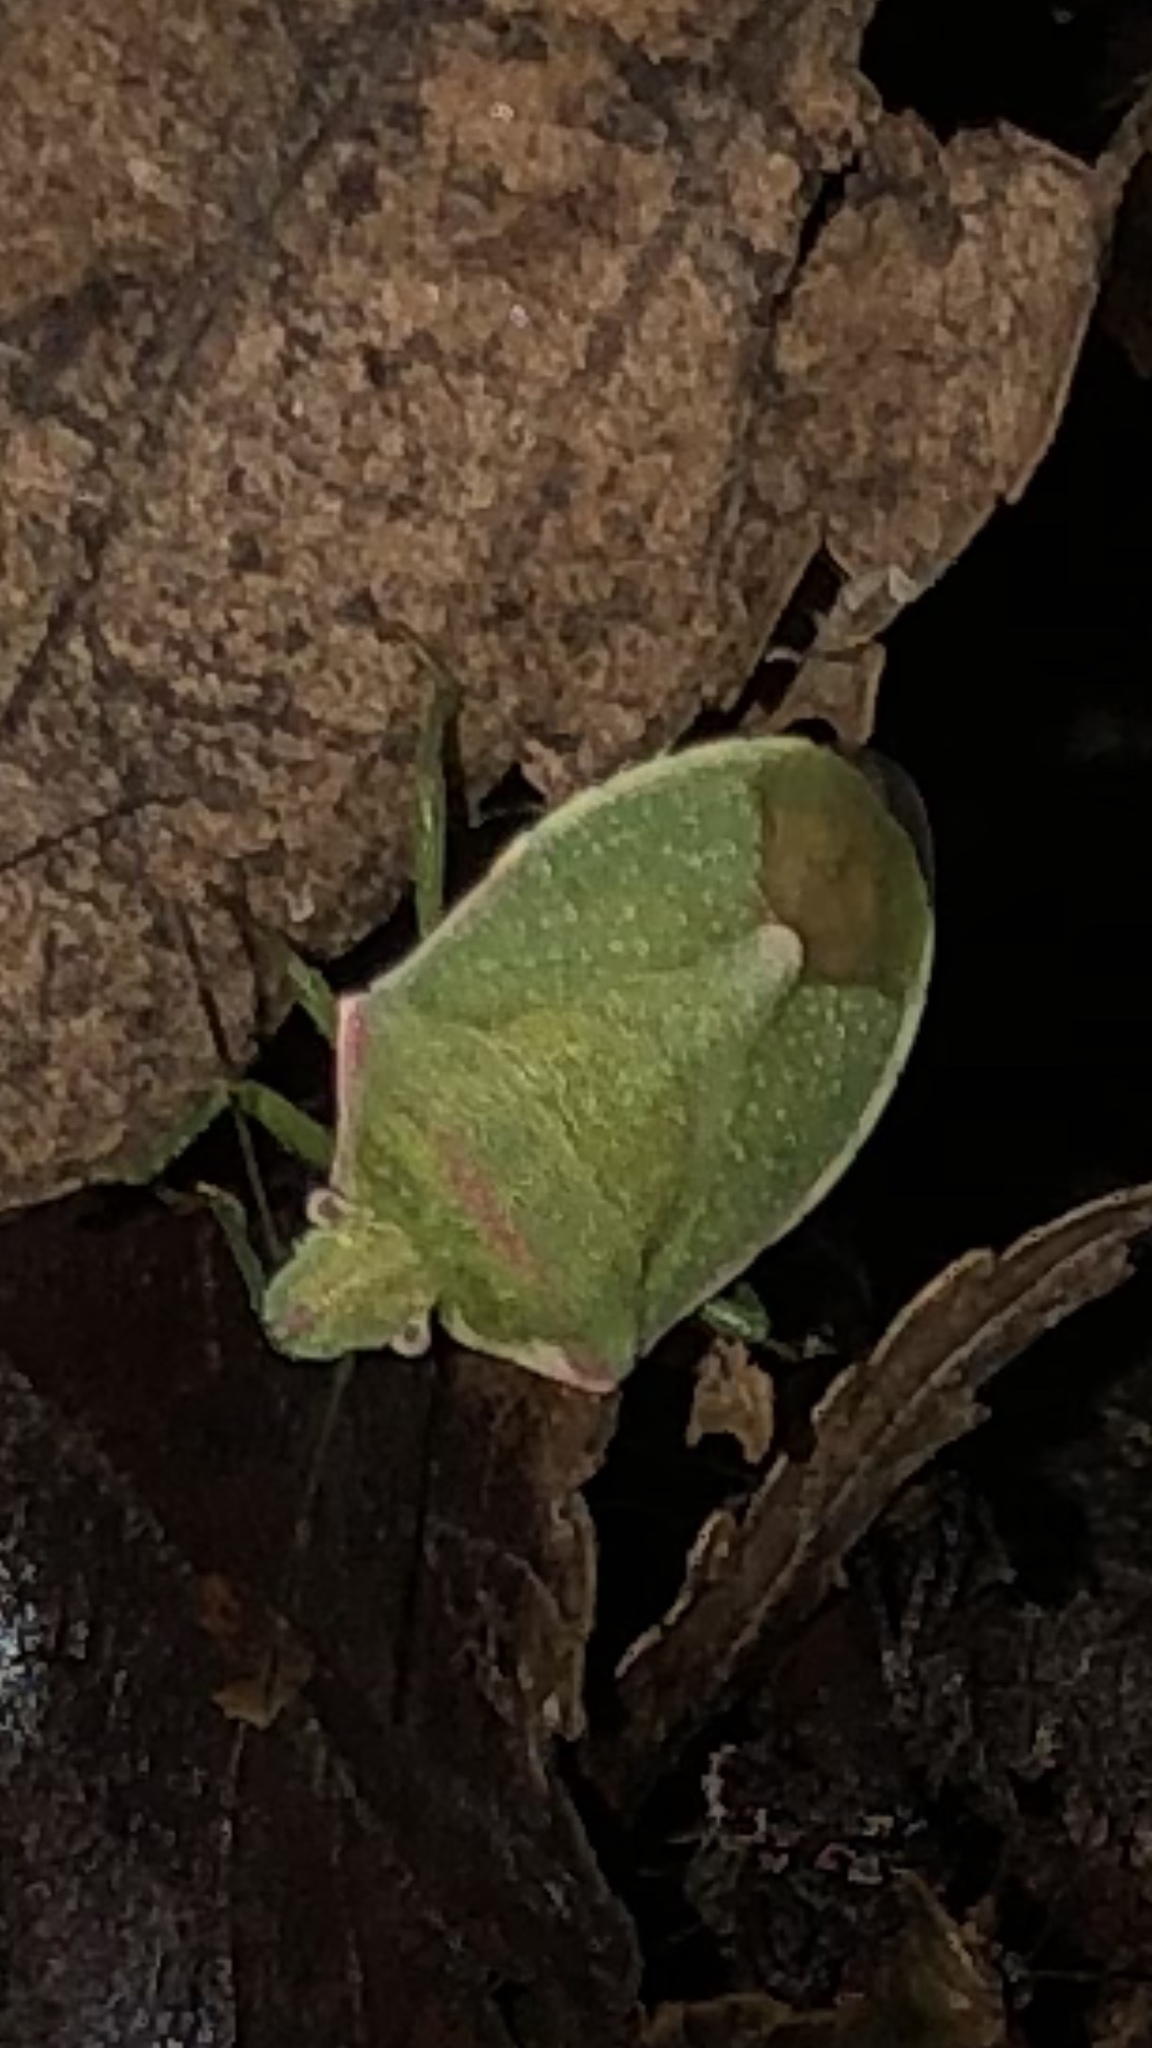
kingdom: Animalia
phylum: Arthropoda
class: Insecta
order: Hemiptera
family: Pentatomidae
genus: Thyanta
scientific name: Thyanta accerra
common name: Stink bug
